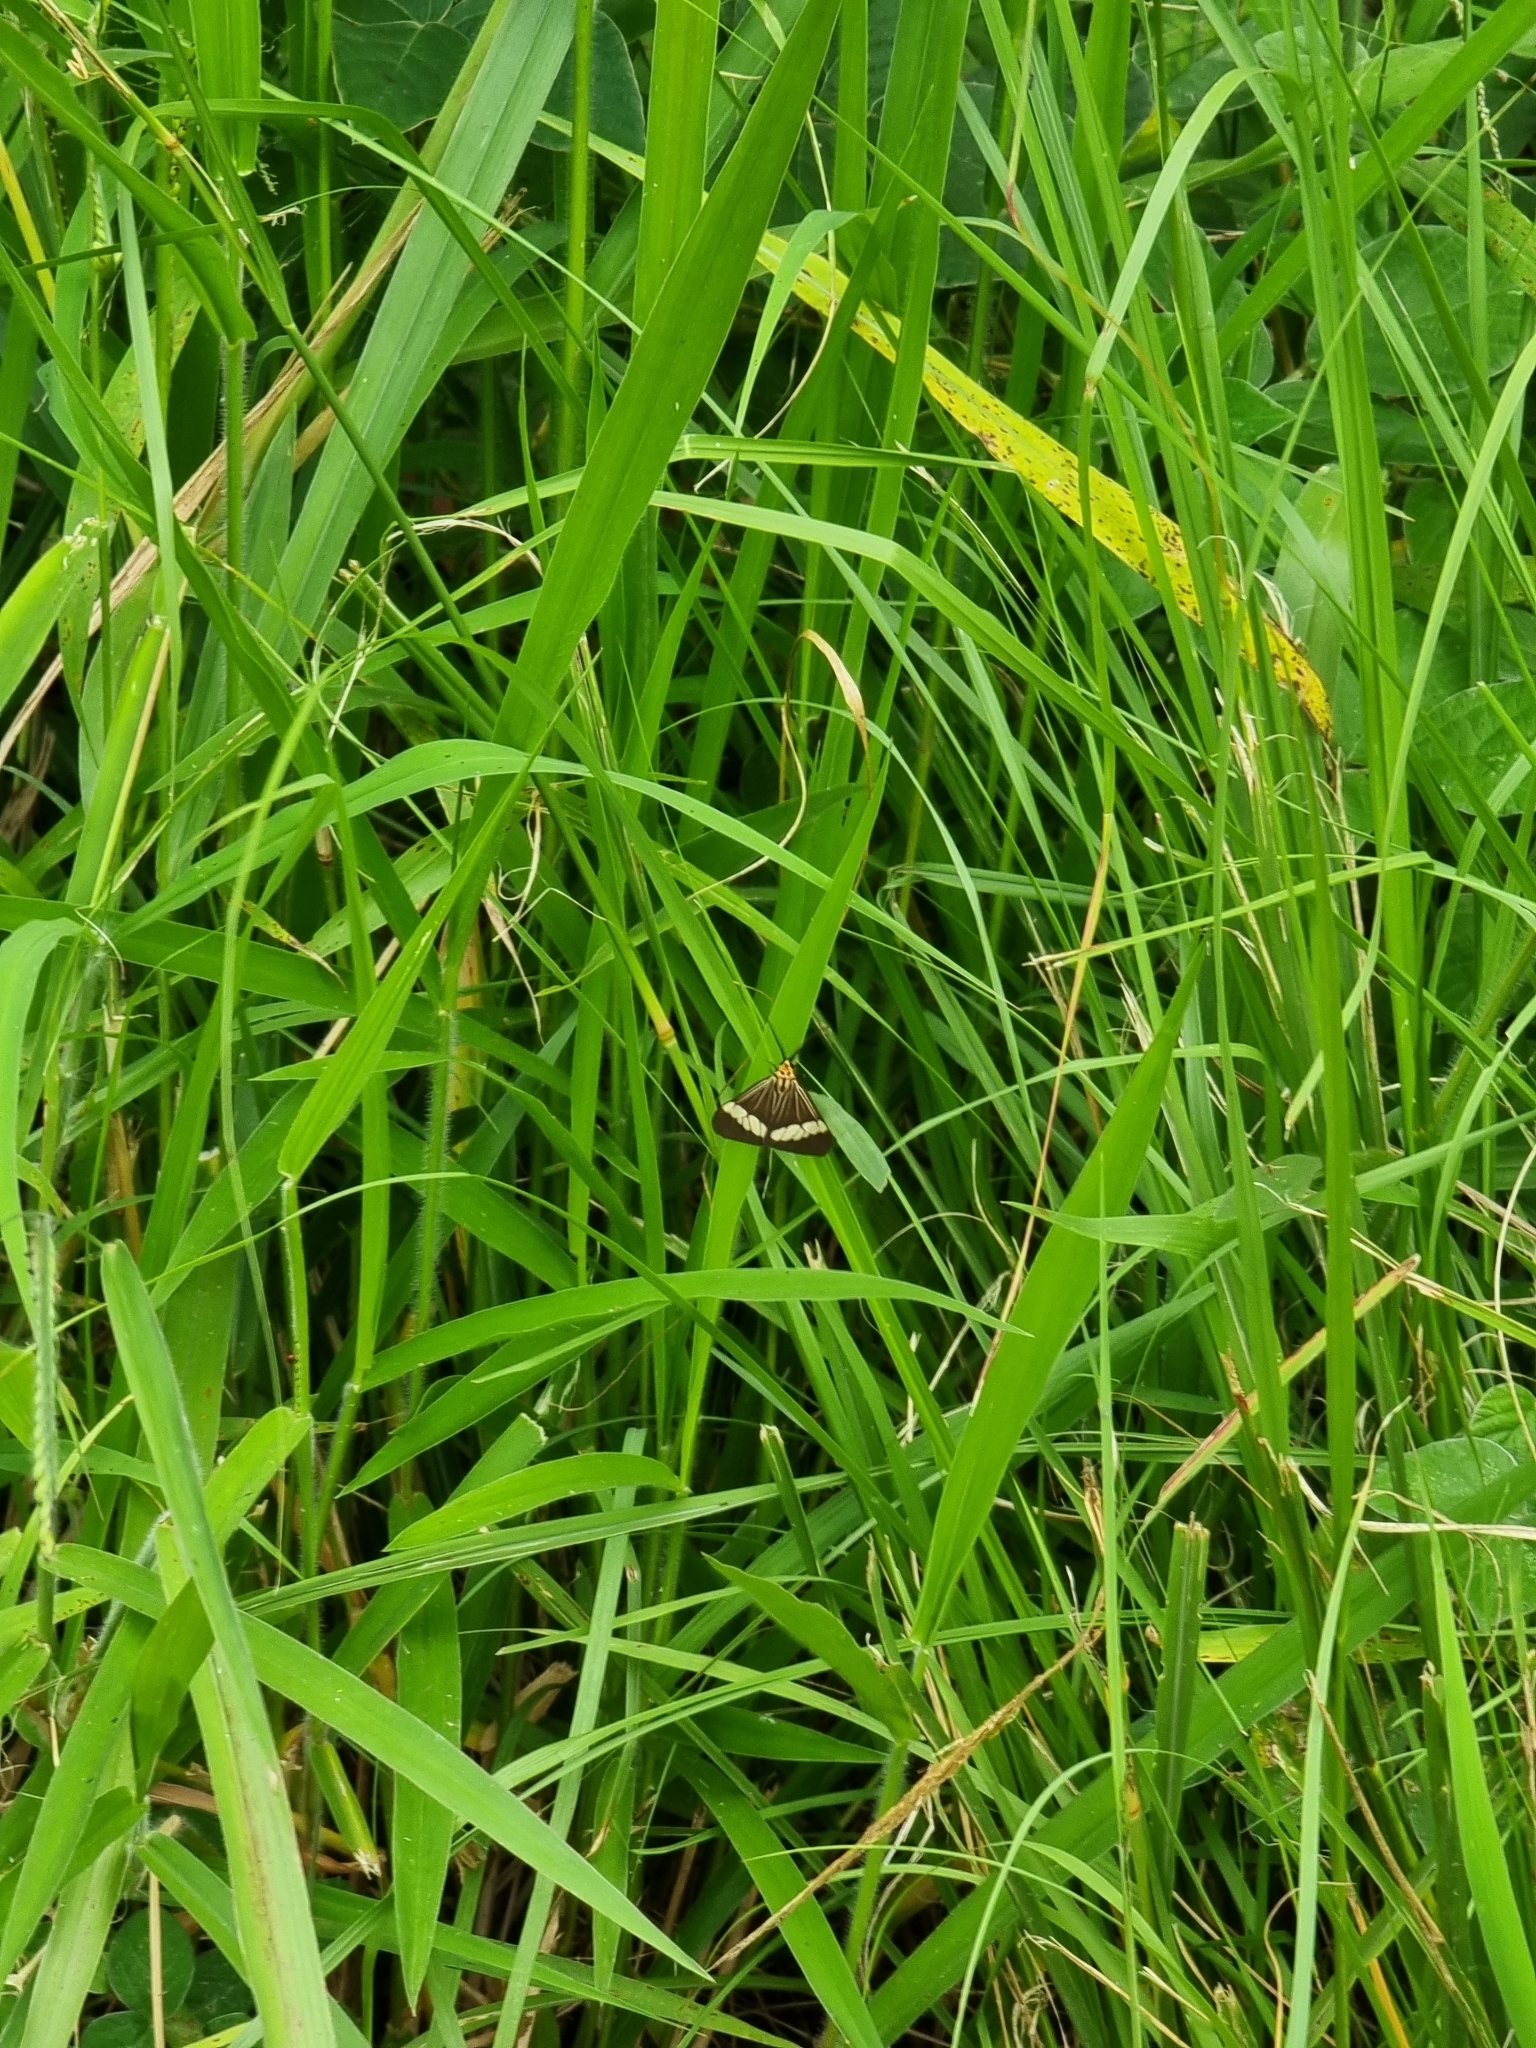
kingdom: Animalia
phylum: Arthropoda
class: Insecta
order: Lepidoptera
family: Erebidae
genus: Nyctemera
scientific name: Nyctemera baulus
